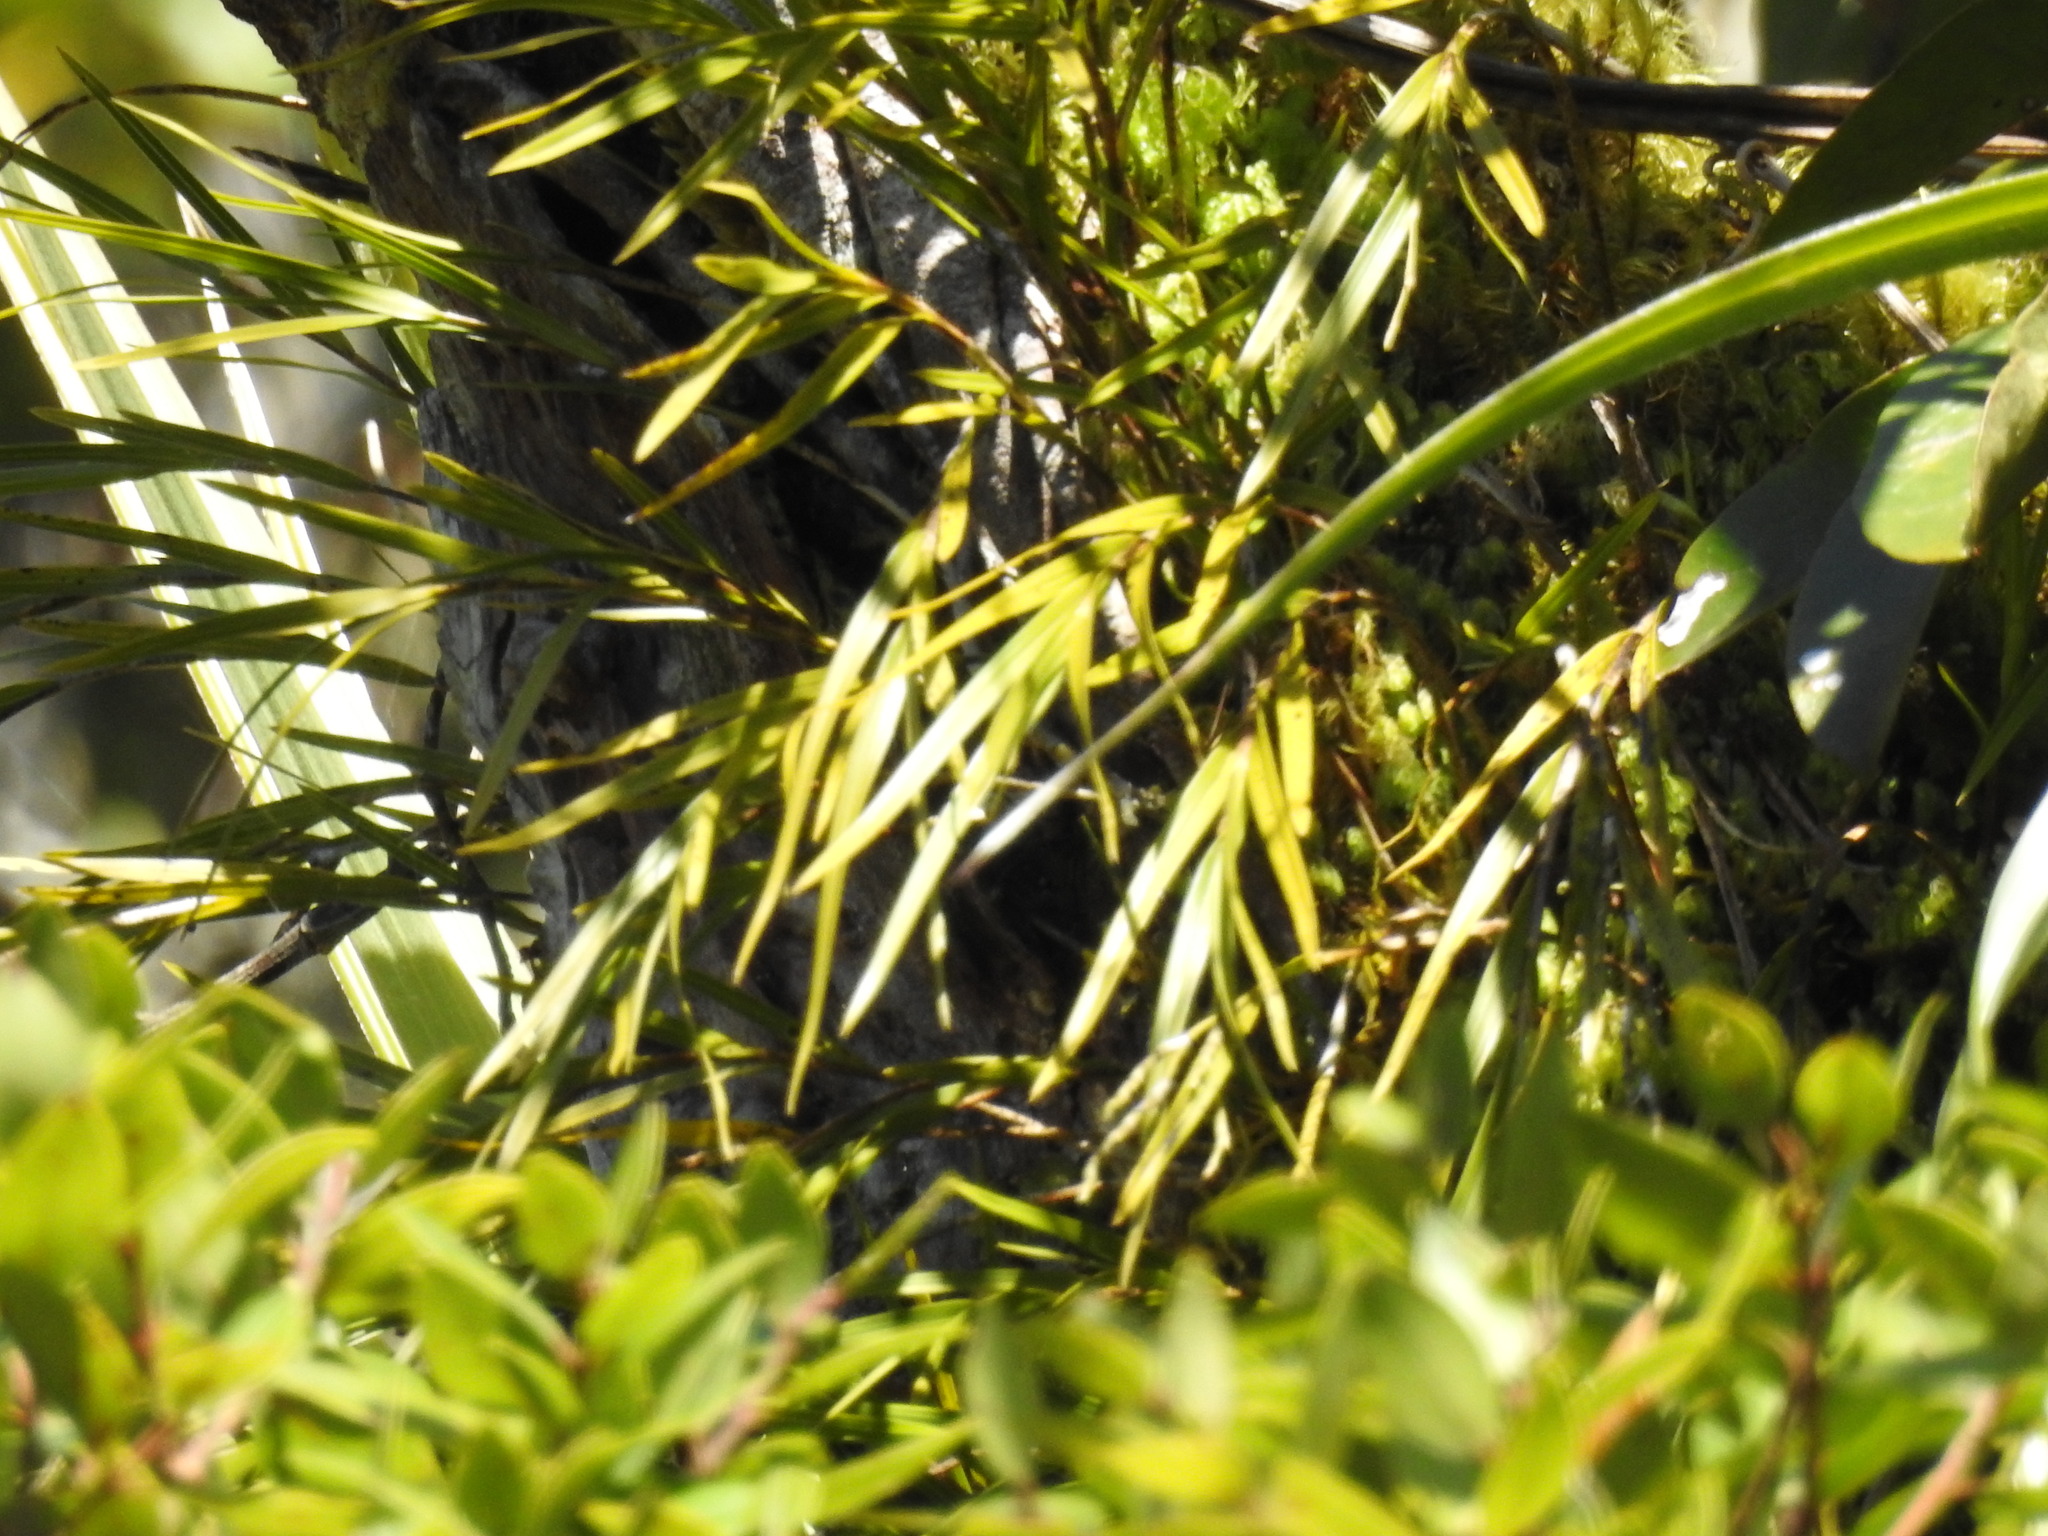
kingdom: Plantae
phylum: Tracheophyta
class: Liliopsida
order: Asparagales
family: Orchidaceae
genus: Earina
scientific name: Earina mucronata
